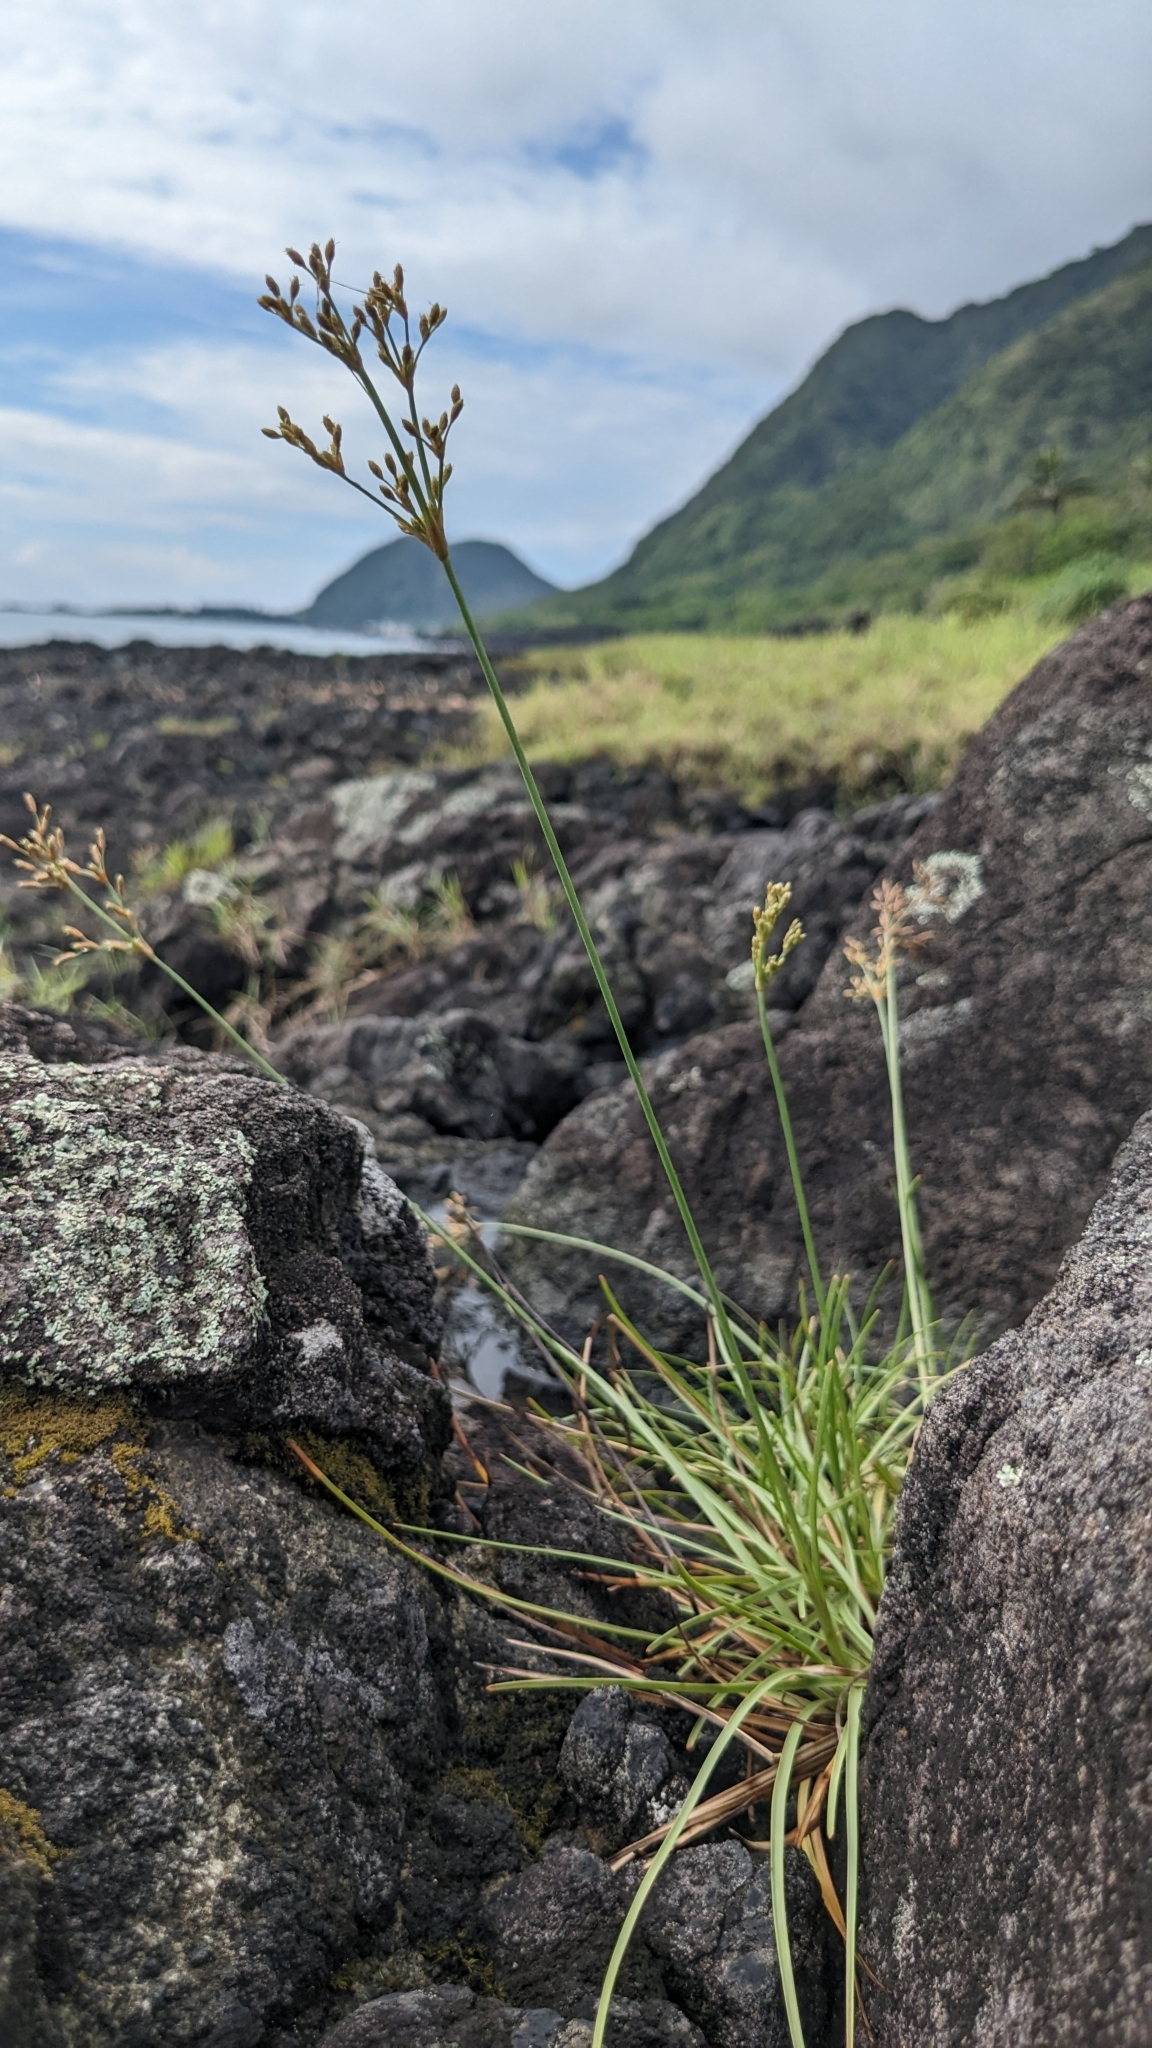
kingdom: Plantae
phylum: Tracheophyta
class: Liliopsida
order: Poales
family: Cyperaceae
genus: Fimbristylis
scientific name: Fimbristylis cymosa
